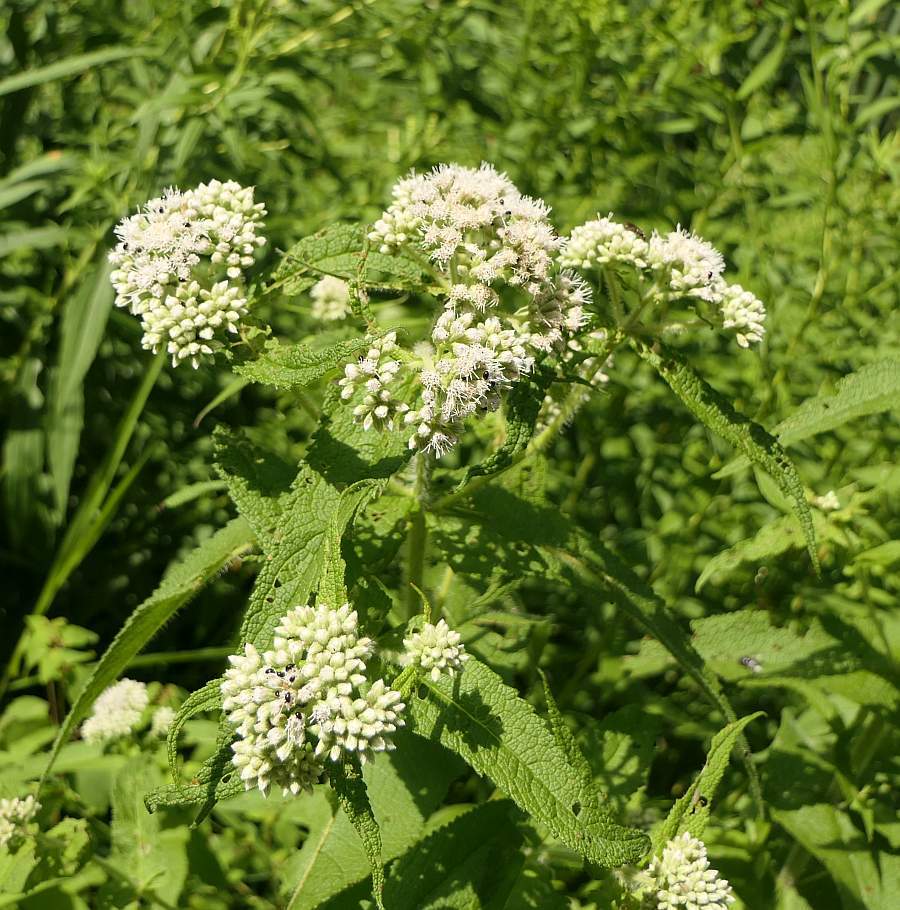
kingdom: Plantae
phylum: Tracheophyta
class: Magnoliopsida
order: Asterales
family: Asteraceae
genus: Eupatorium
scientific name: Eupatorium perfoliatum
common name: Boneset
